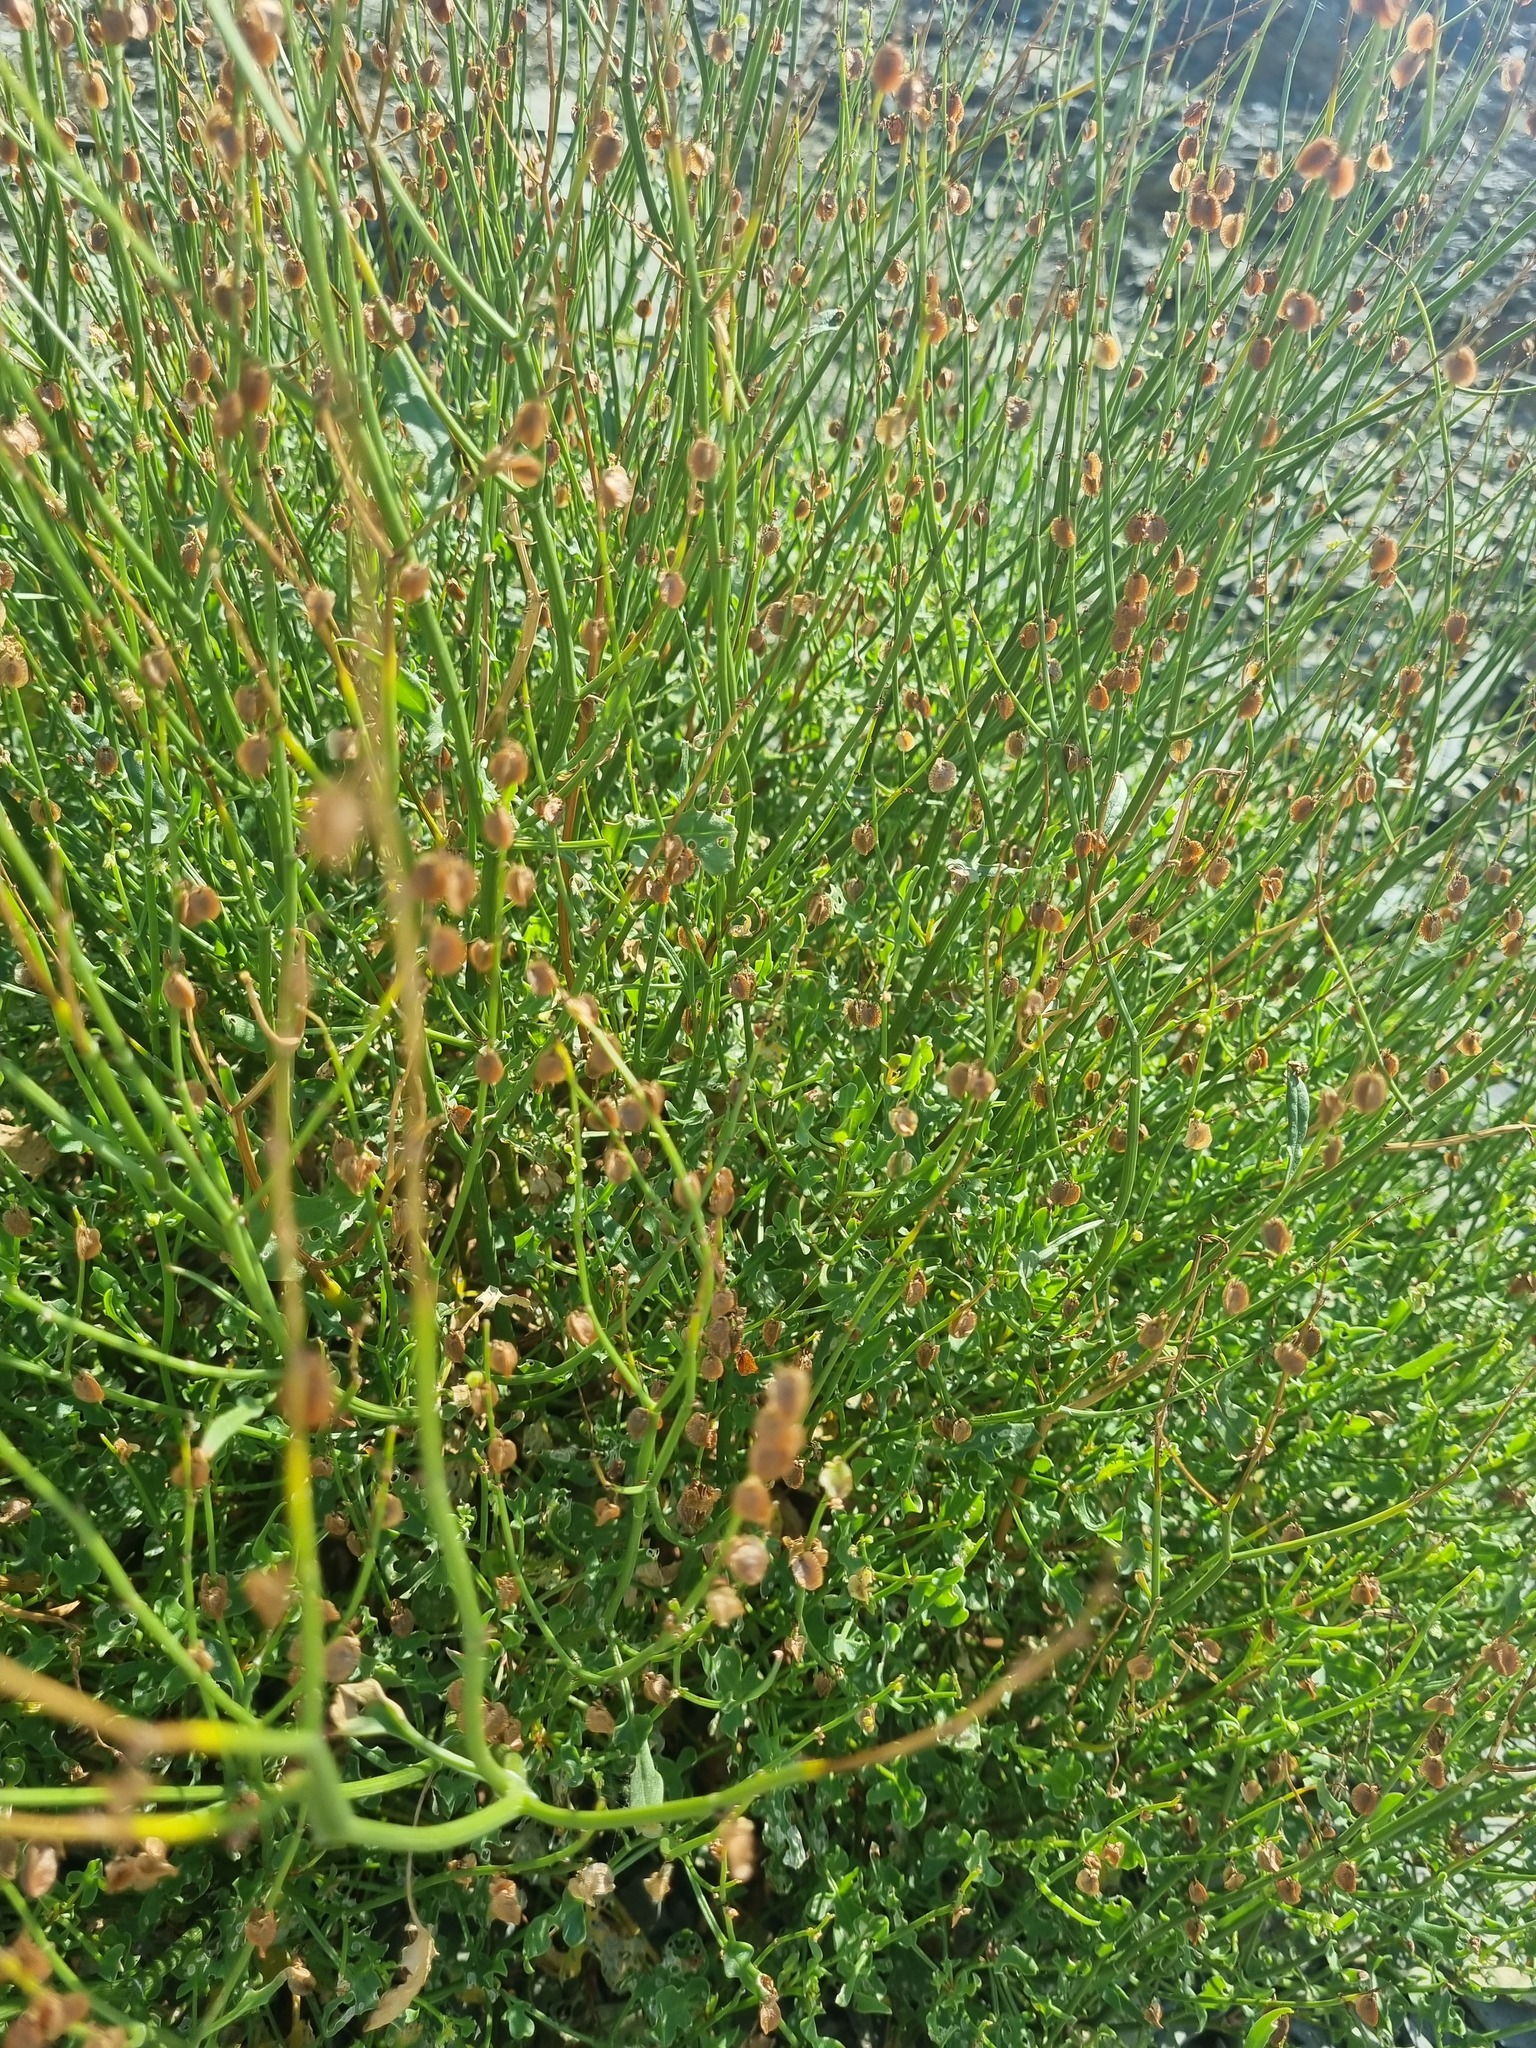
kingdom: Plantae
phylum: Tracheophyta
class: Magnoliopsida
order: Caryophyllales
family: Polygonaceae
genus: Rumex
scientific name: Rumex scutatus
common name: French sorrel
